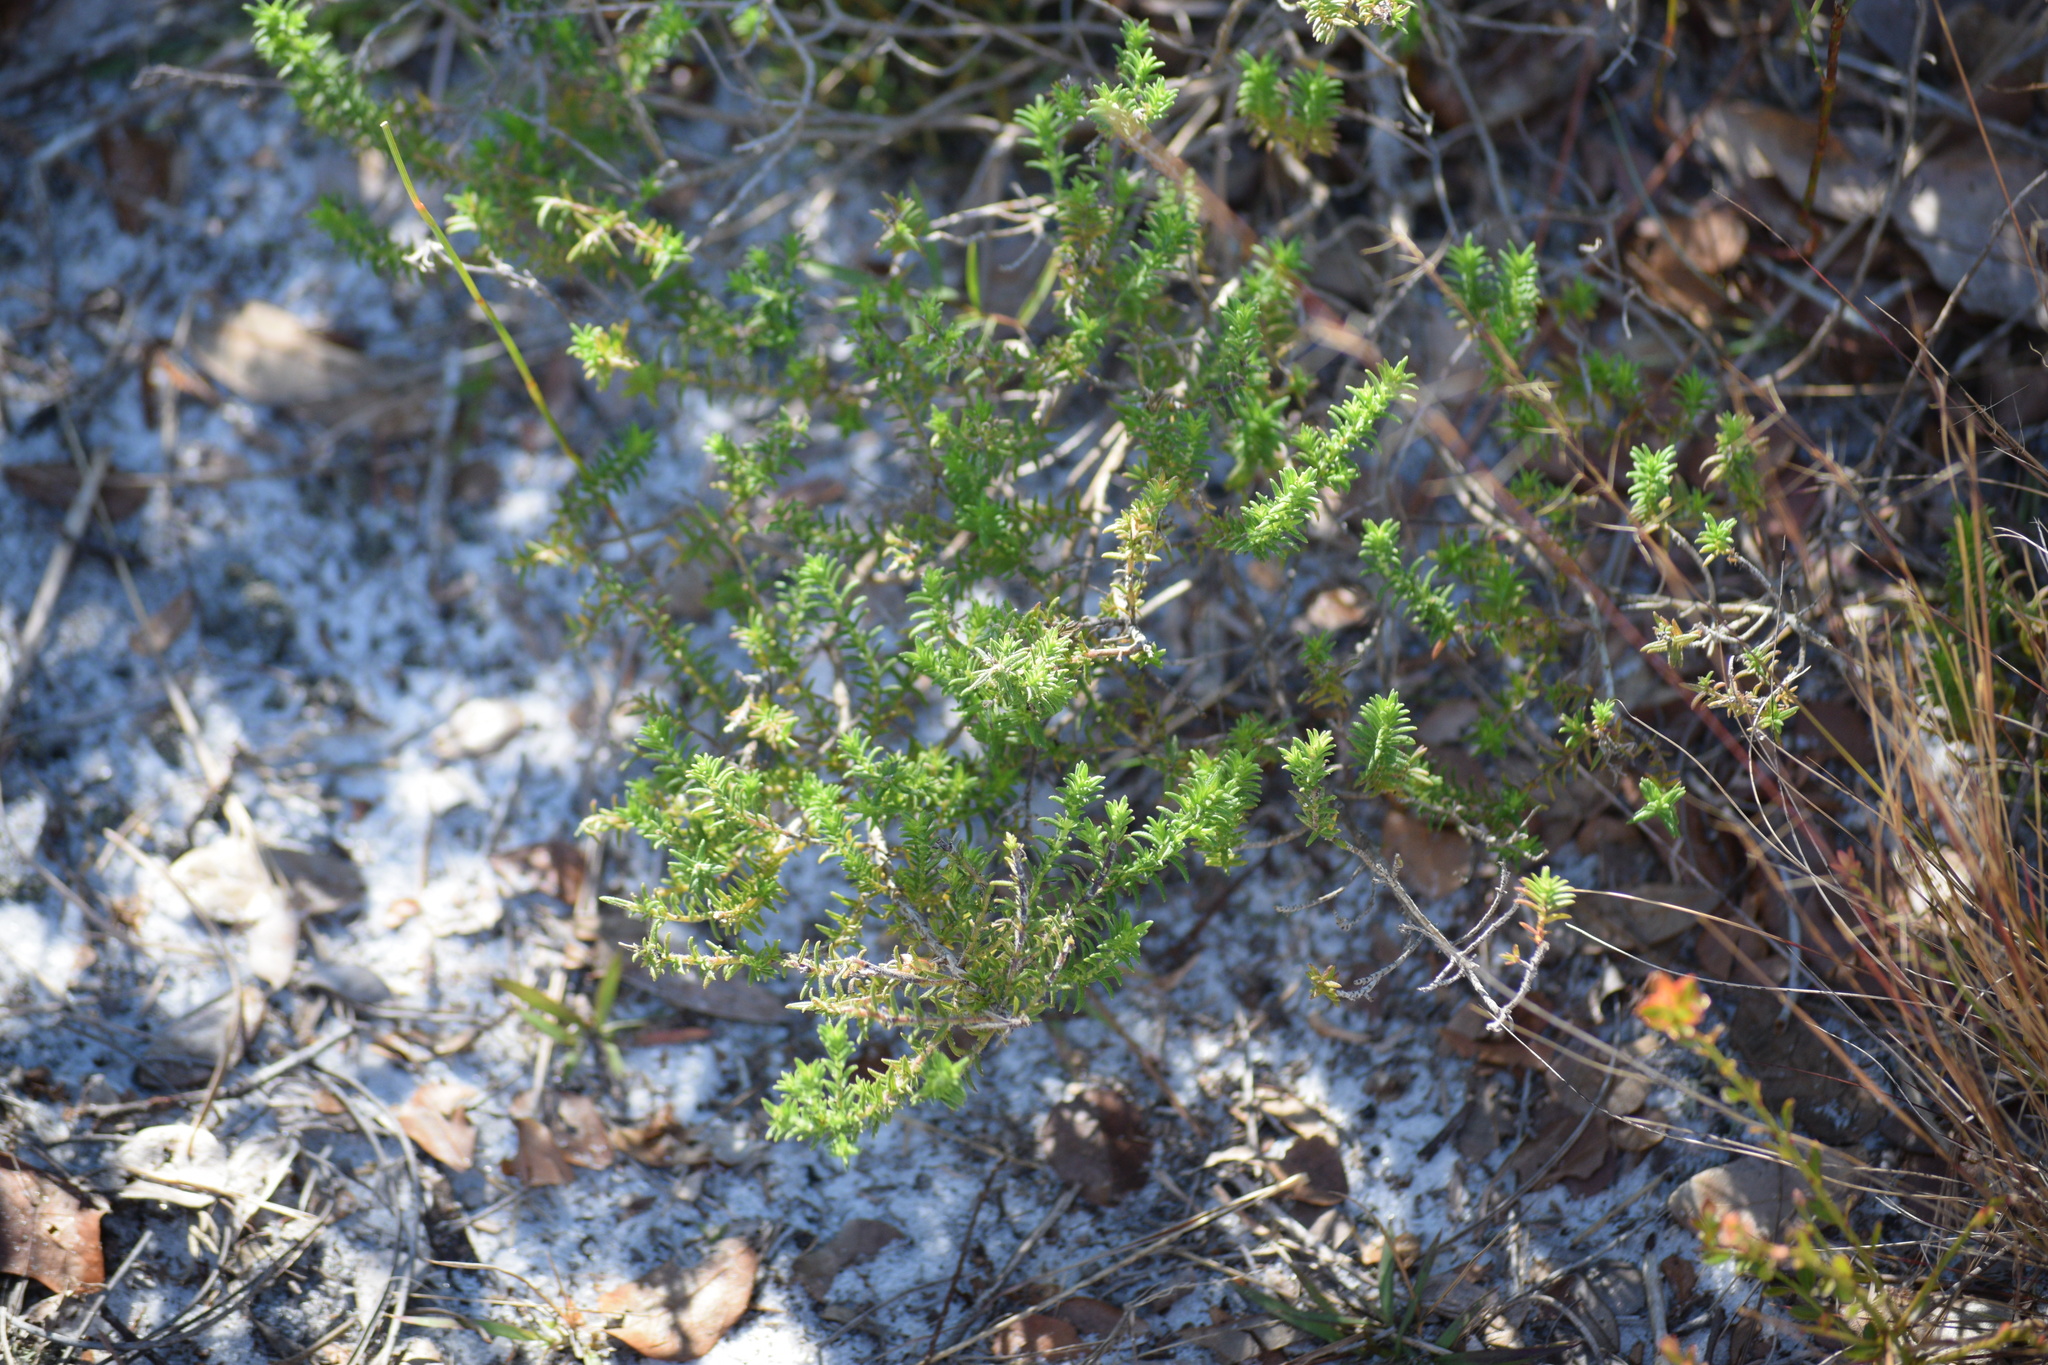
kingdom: Plantae
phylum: Tracheophyta
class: Magnoliopsida
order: Lamiales
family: Lamiaceae
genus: Piloblephis
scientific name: Piloblephis rigida
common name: Wild pennyroyal
